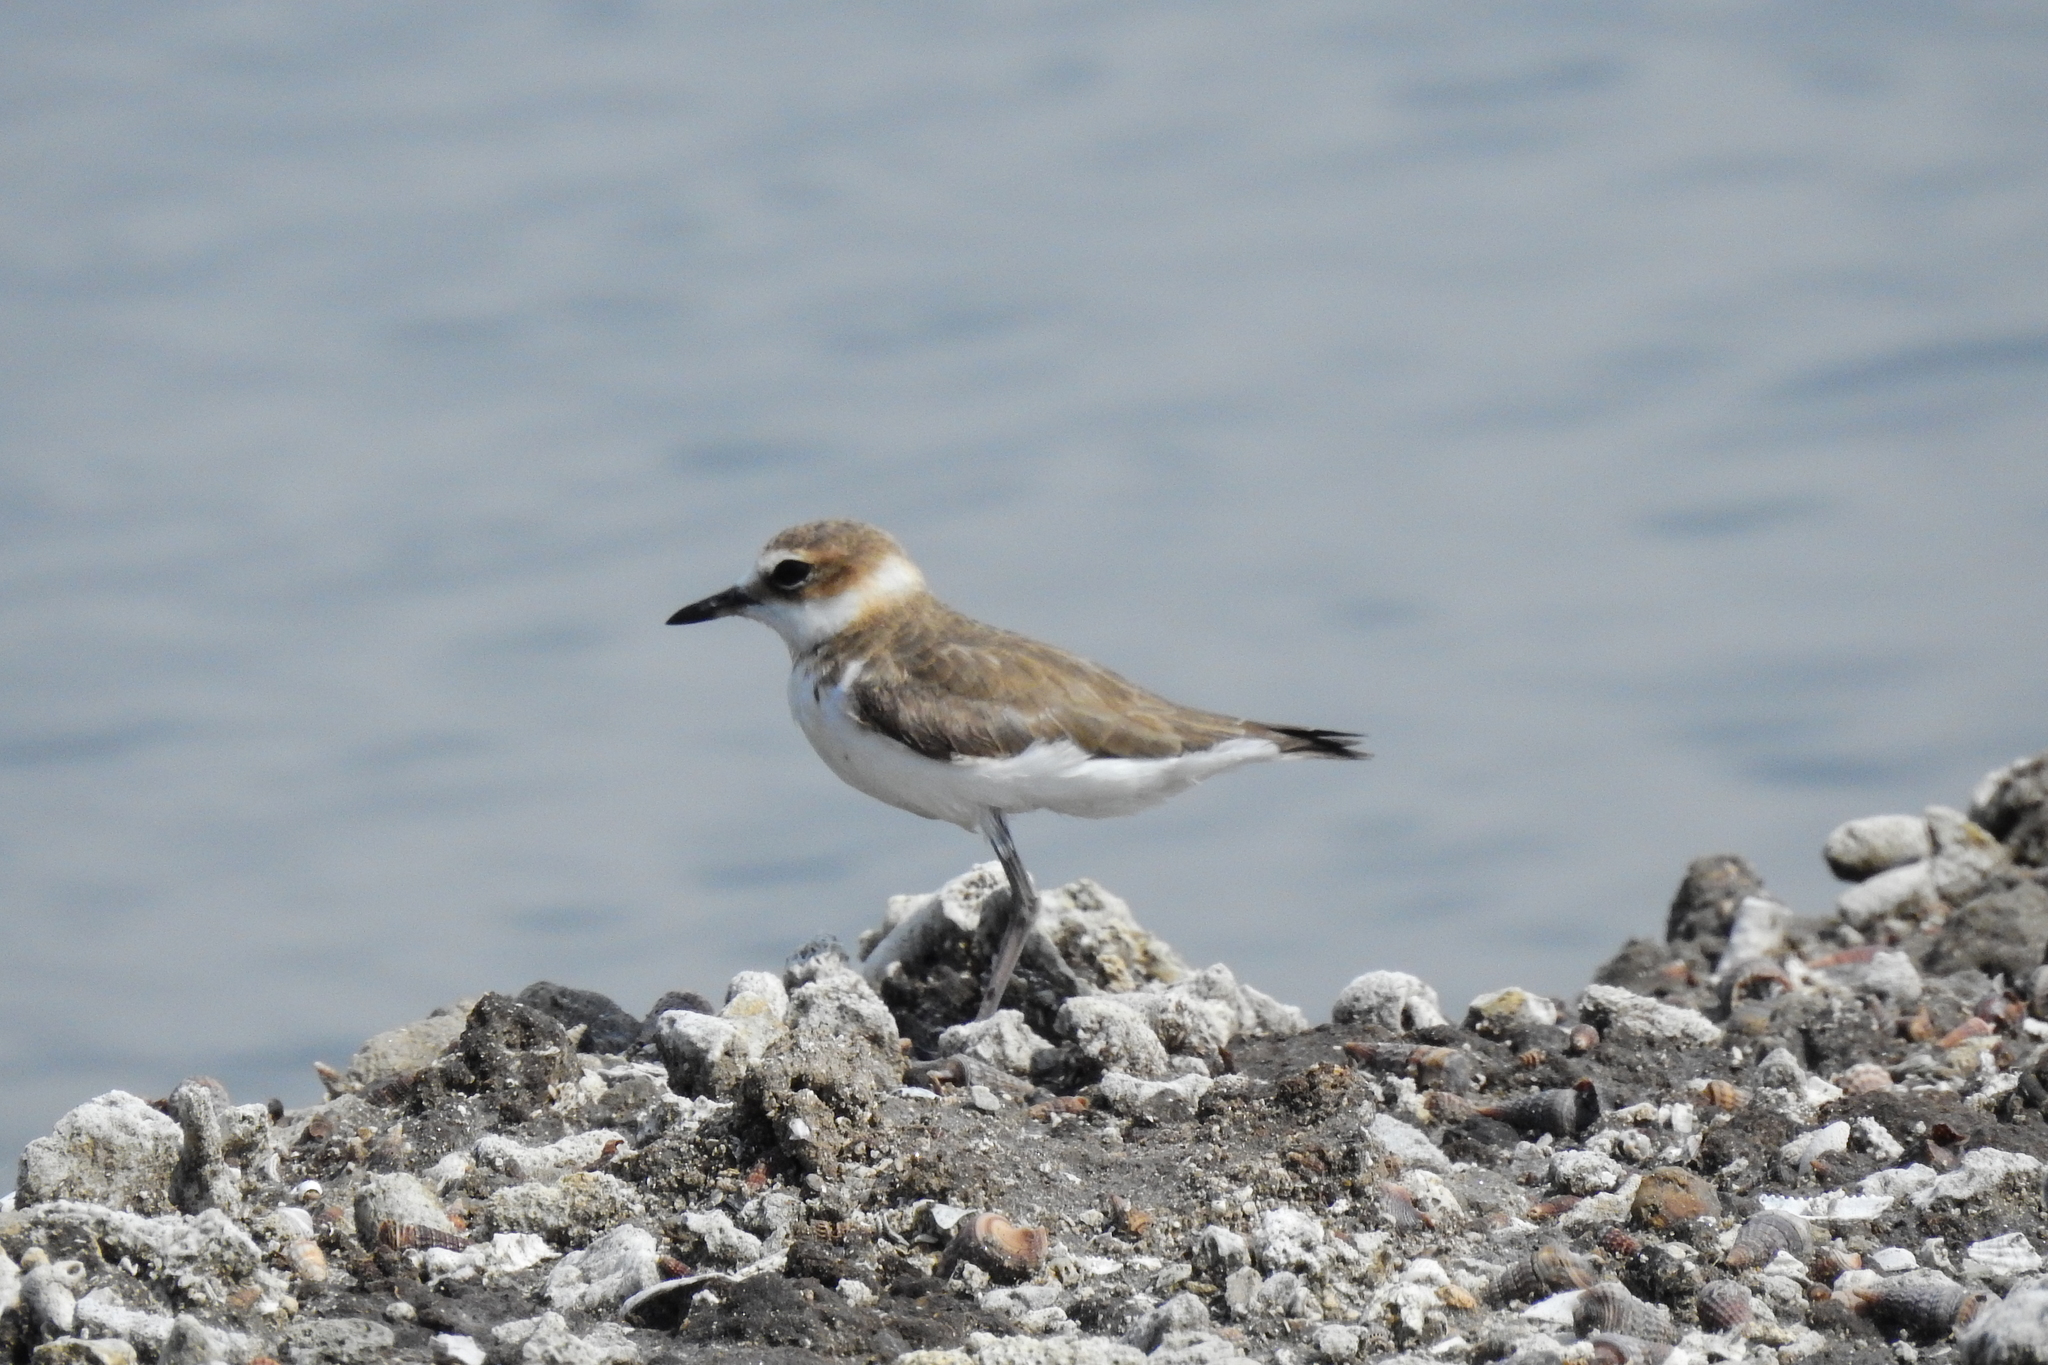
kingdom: Animalia
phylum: Chordata
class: Aves
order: Charadriiformes
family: Charadriidae
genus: Anarhynchus
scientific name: Anarhynchus
